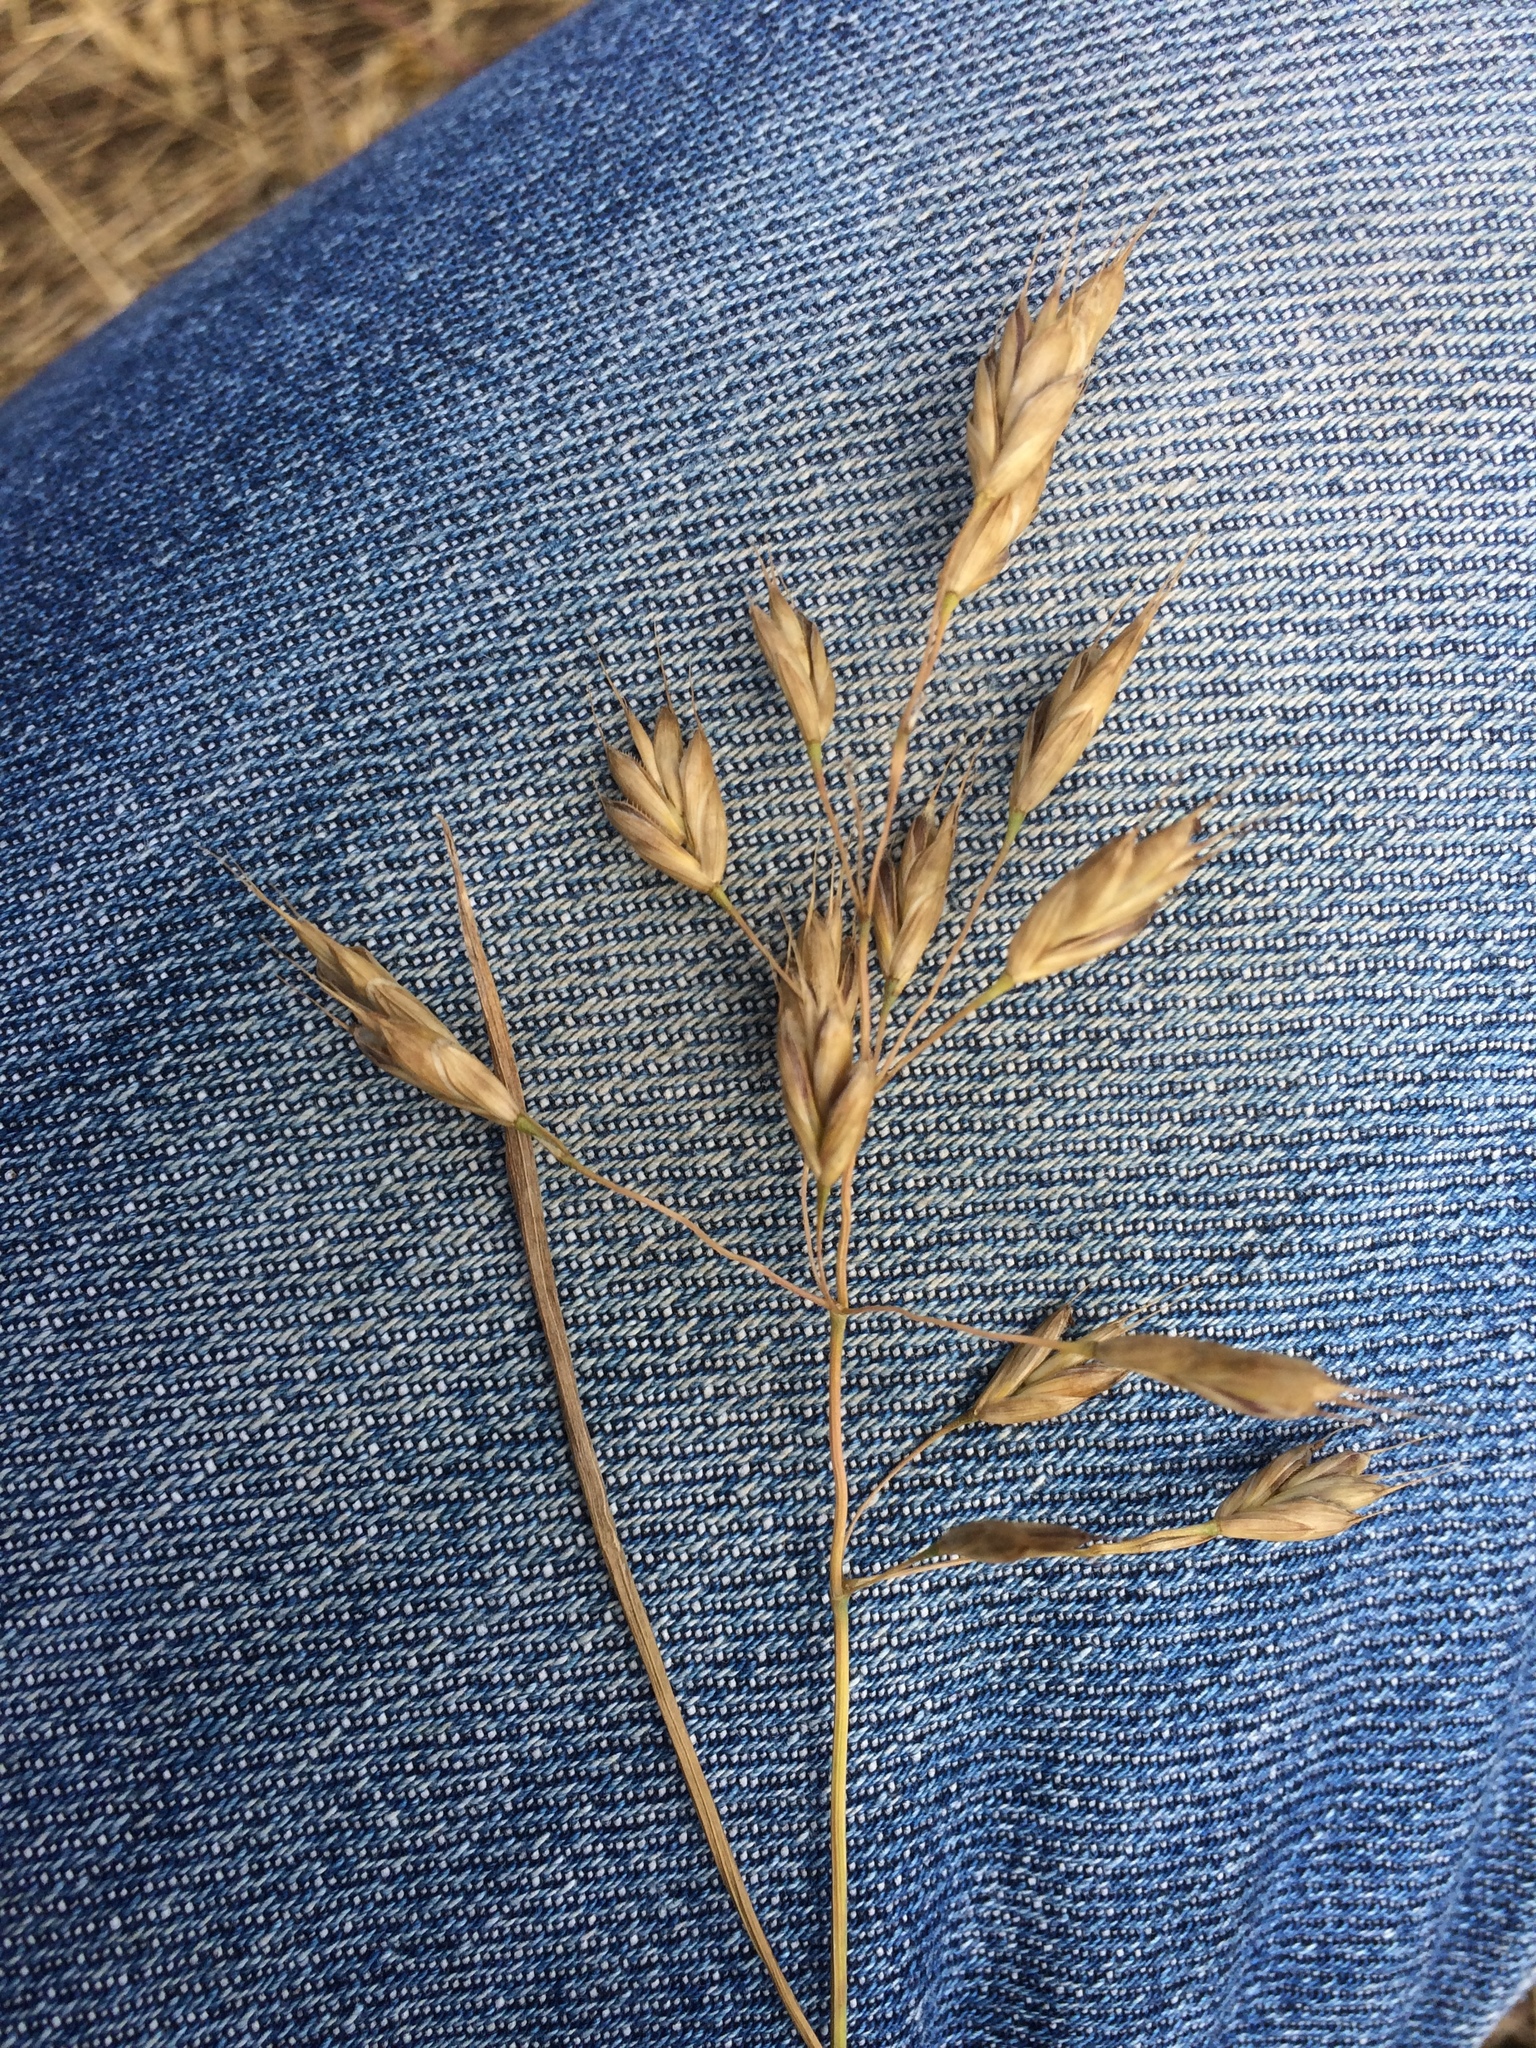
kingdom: Plantae
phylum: Tracheophyta
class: Liliopsida
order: Poales
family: Poaceae
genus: Bromus
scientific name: Bromus secalinus
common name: Rye brome
